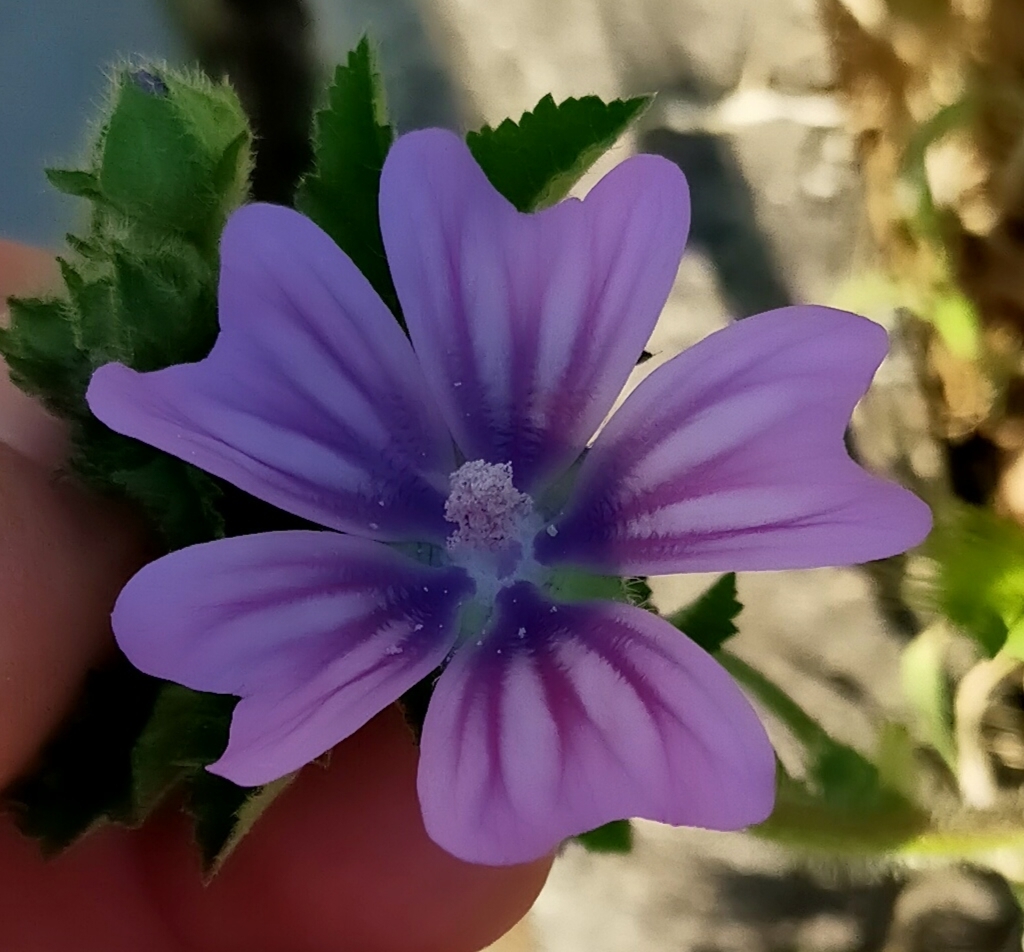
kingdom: Plantae
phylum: Tracheophyta
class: Magnoliopsida
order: Malvales
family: Malvaceae
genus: Malva
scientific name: Malva sylvestris
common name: Common mallow
